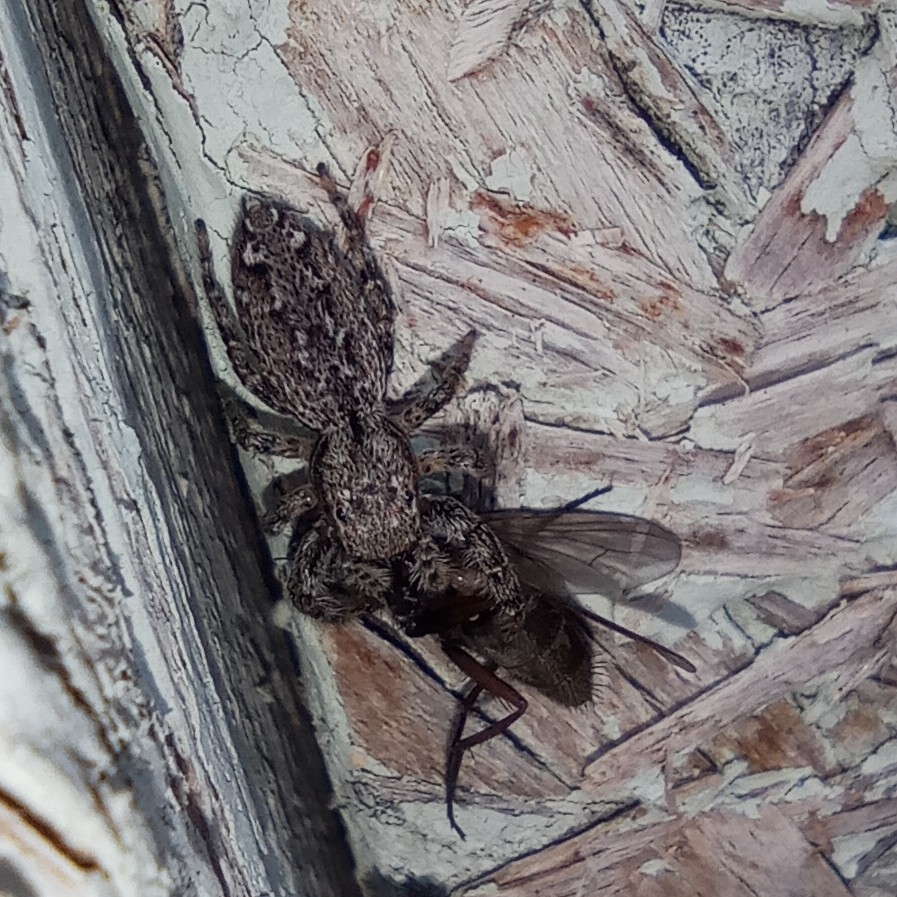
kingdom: Animalia
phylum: Arthropoda
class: Arachnida
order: Araneae
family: Salticidae
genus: Marpissa
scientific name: Marpissa muscosa
